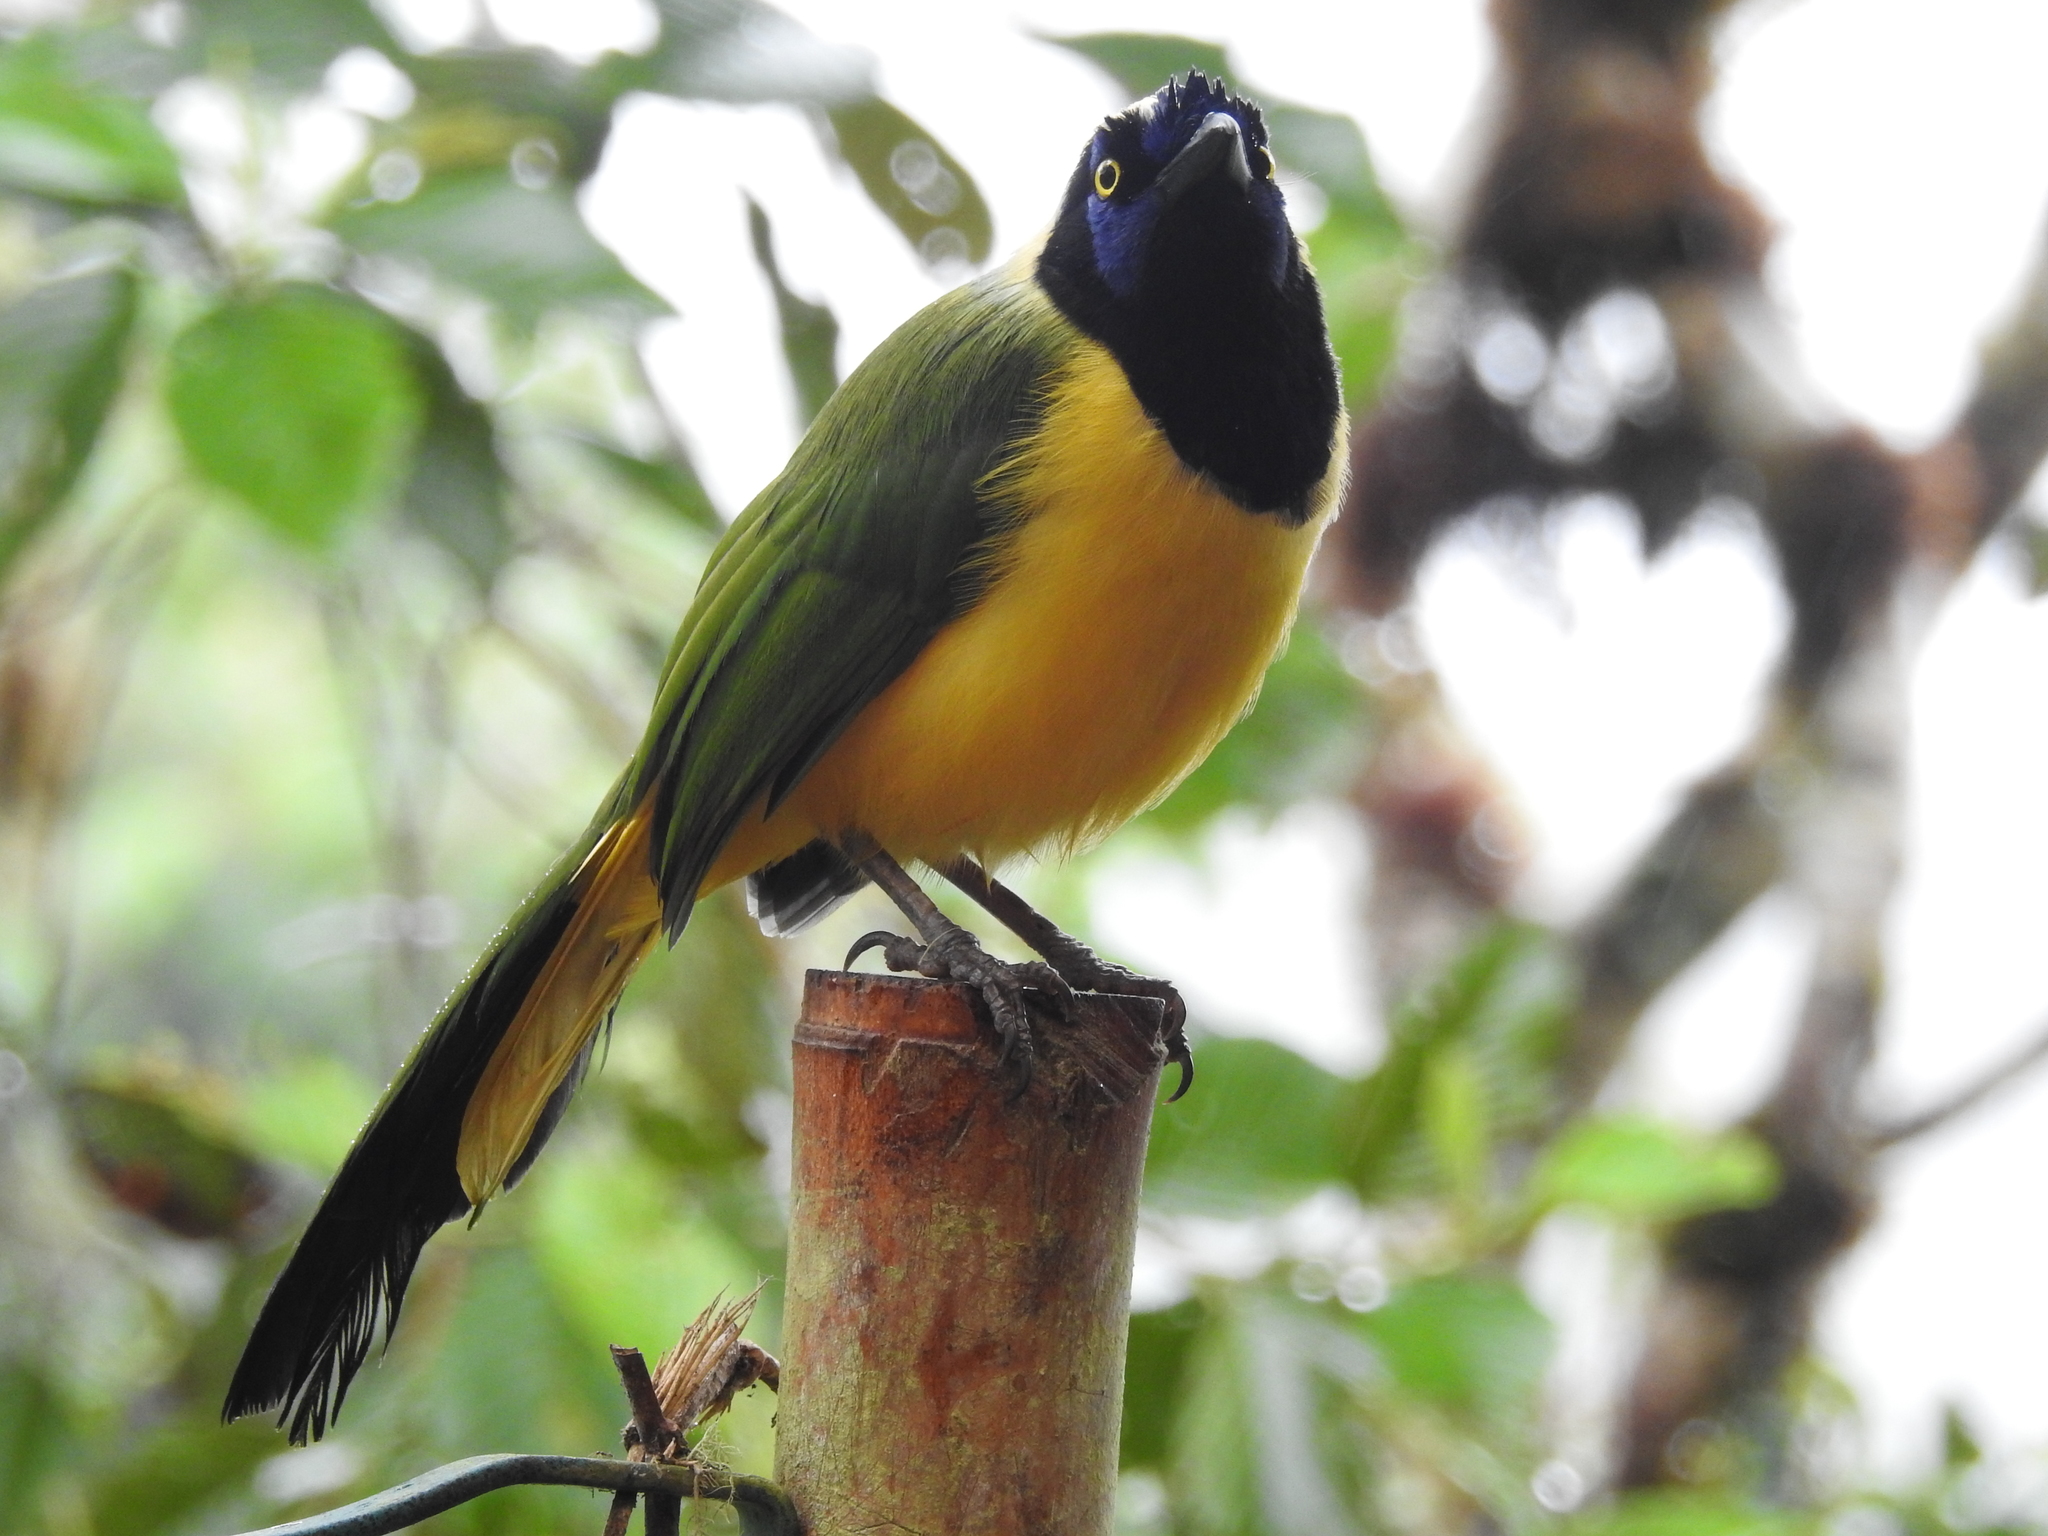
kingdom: Animalia
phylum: Chordata
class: Aves
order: Passeriformes
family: Corvidae
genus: Cyanocorax
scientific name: Cyanocorax yncas
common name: Green jay
